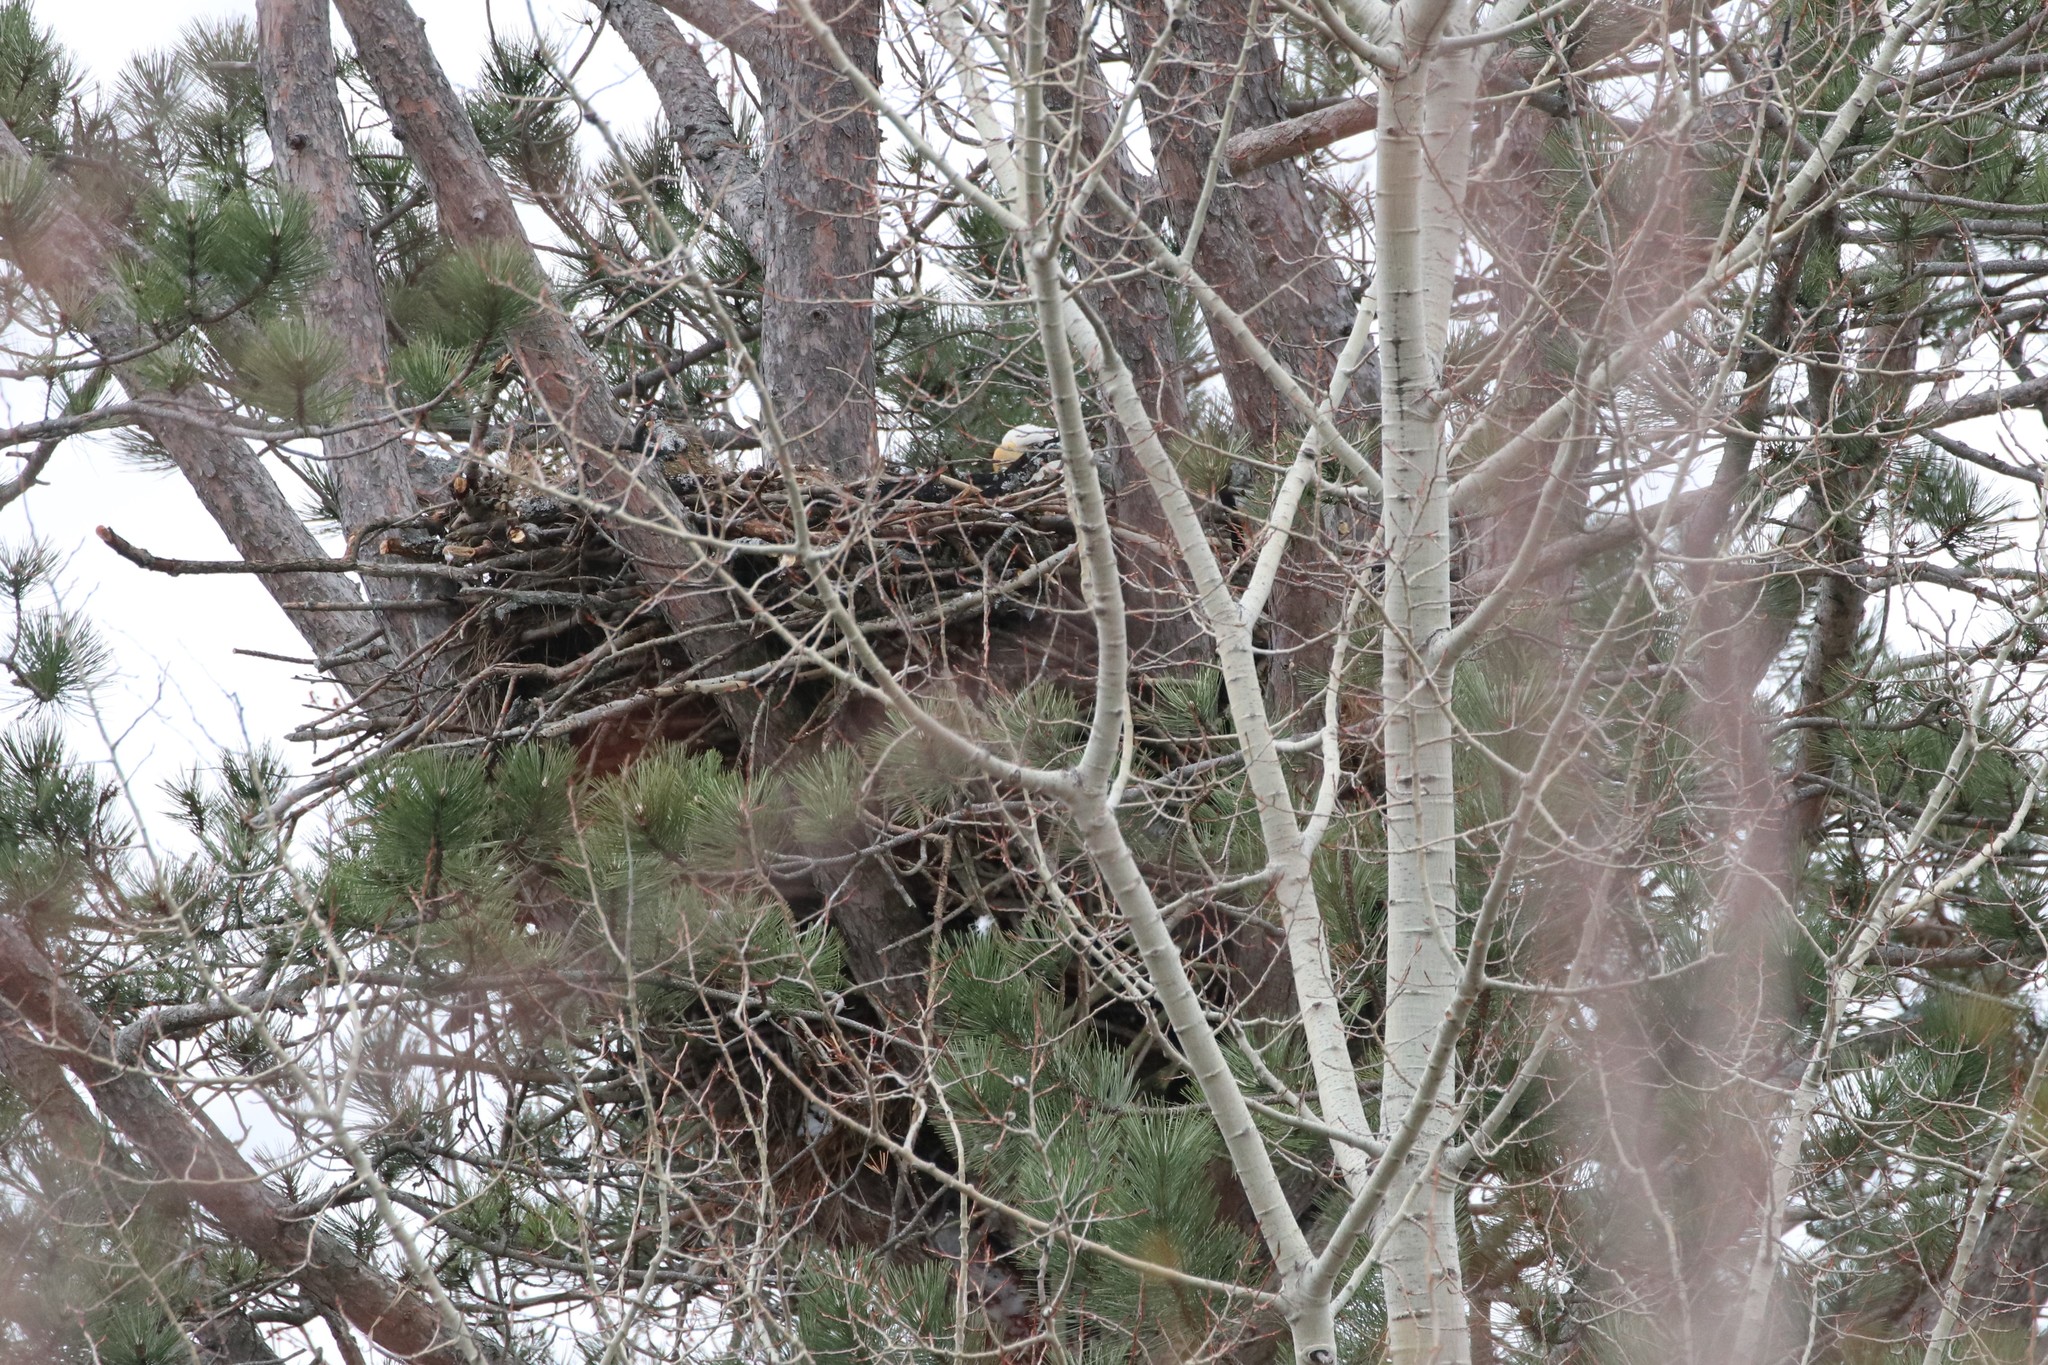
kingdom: Animalia
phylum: Chordata
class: Aves
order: Accipitriformes
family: Accipitridae
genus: Haliaeetus
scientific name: Haliaeetus leucocephalus
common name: Bald eagle
